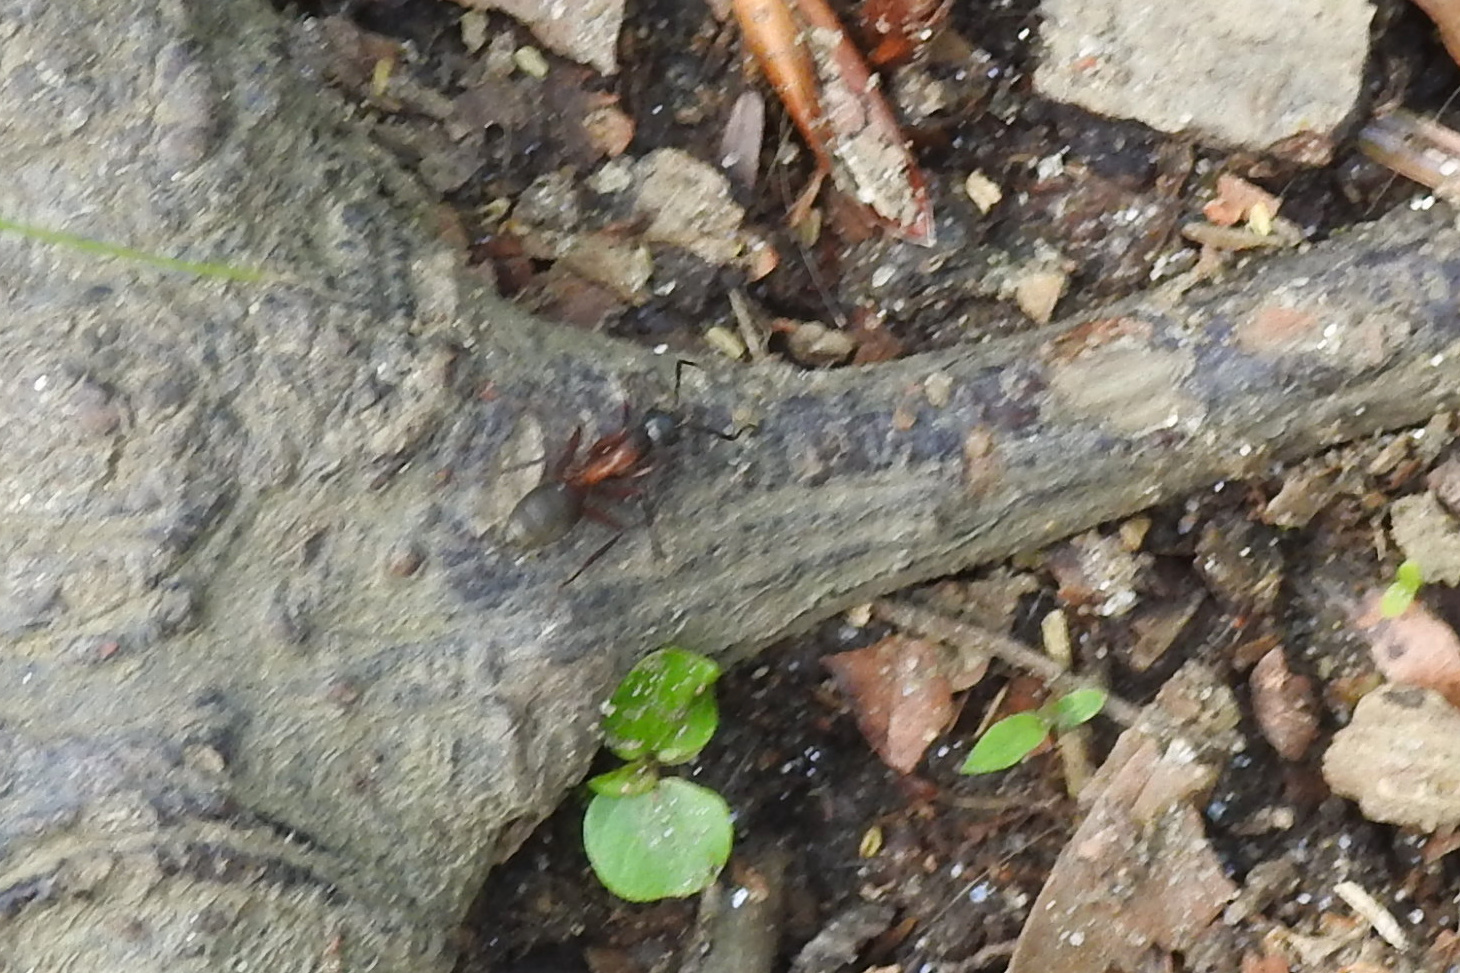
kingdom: Animalia
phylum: Arthropoda
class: Insecta
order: Hymenoptera
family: Formicidae
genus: Camponotus
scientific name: Camponotus chromaiodes
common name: Red carpenter ant
